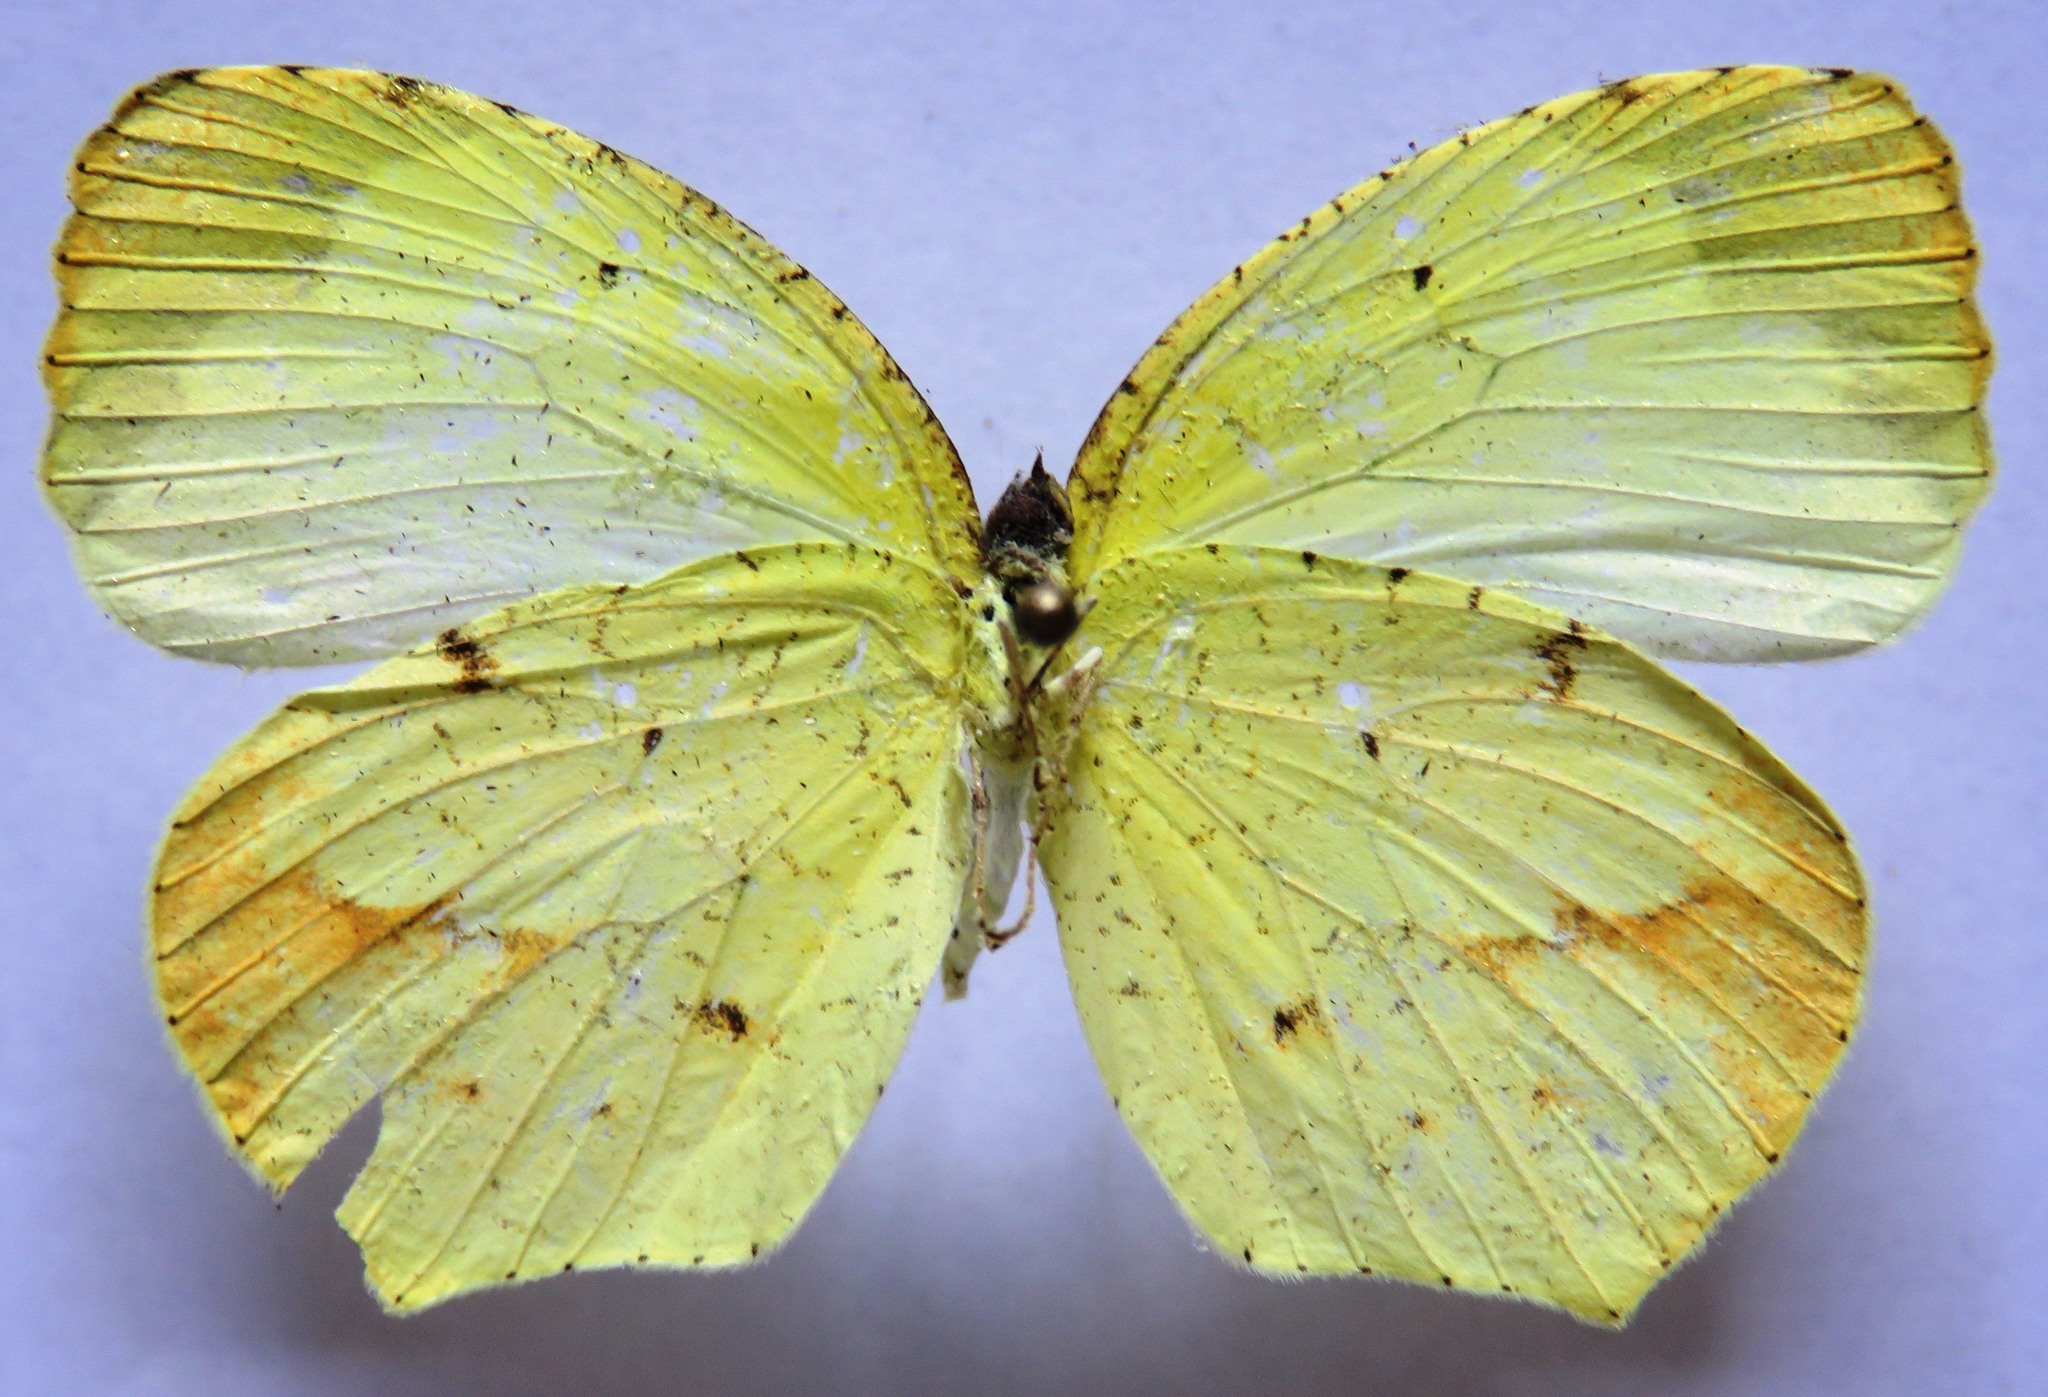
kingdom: Animalia
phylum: Arthropoda
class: Insecta
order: Lepidoptera
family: Pieridae
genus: Abaeis
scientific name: Abaeis boisduvaliana
